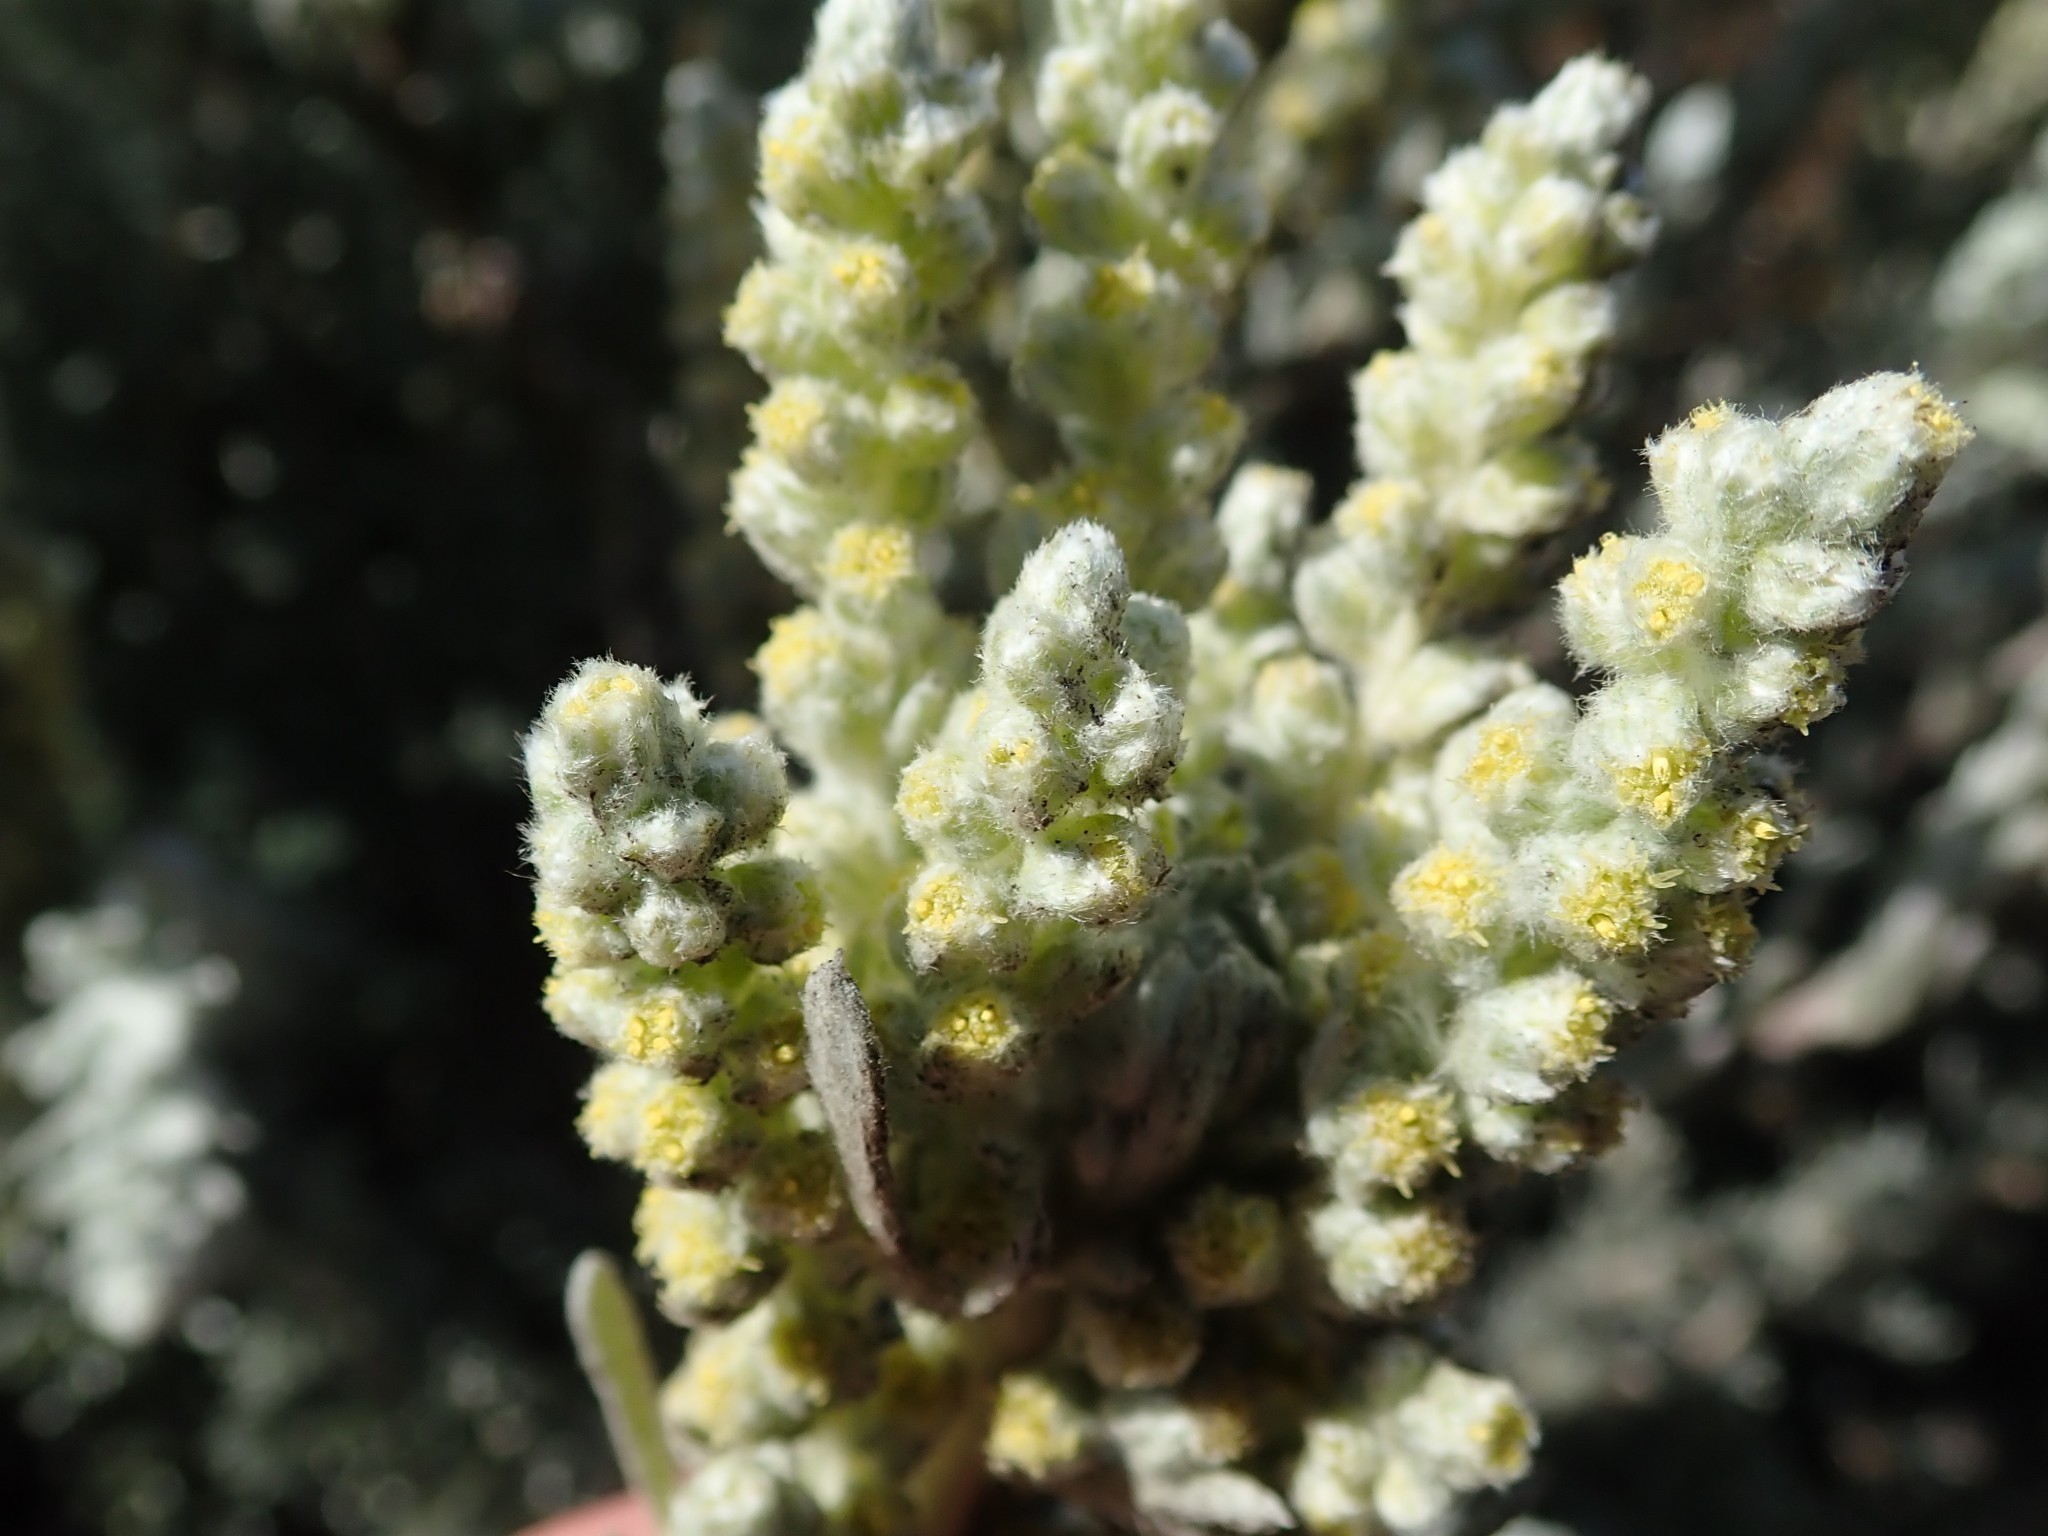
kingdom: Plantae
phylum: Tracheophyta
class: Magnoliopsida
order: Asterales
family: Asteraceae
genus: Artemisia
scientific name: Artemisia pycnocephala
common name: Coastal sagewort
